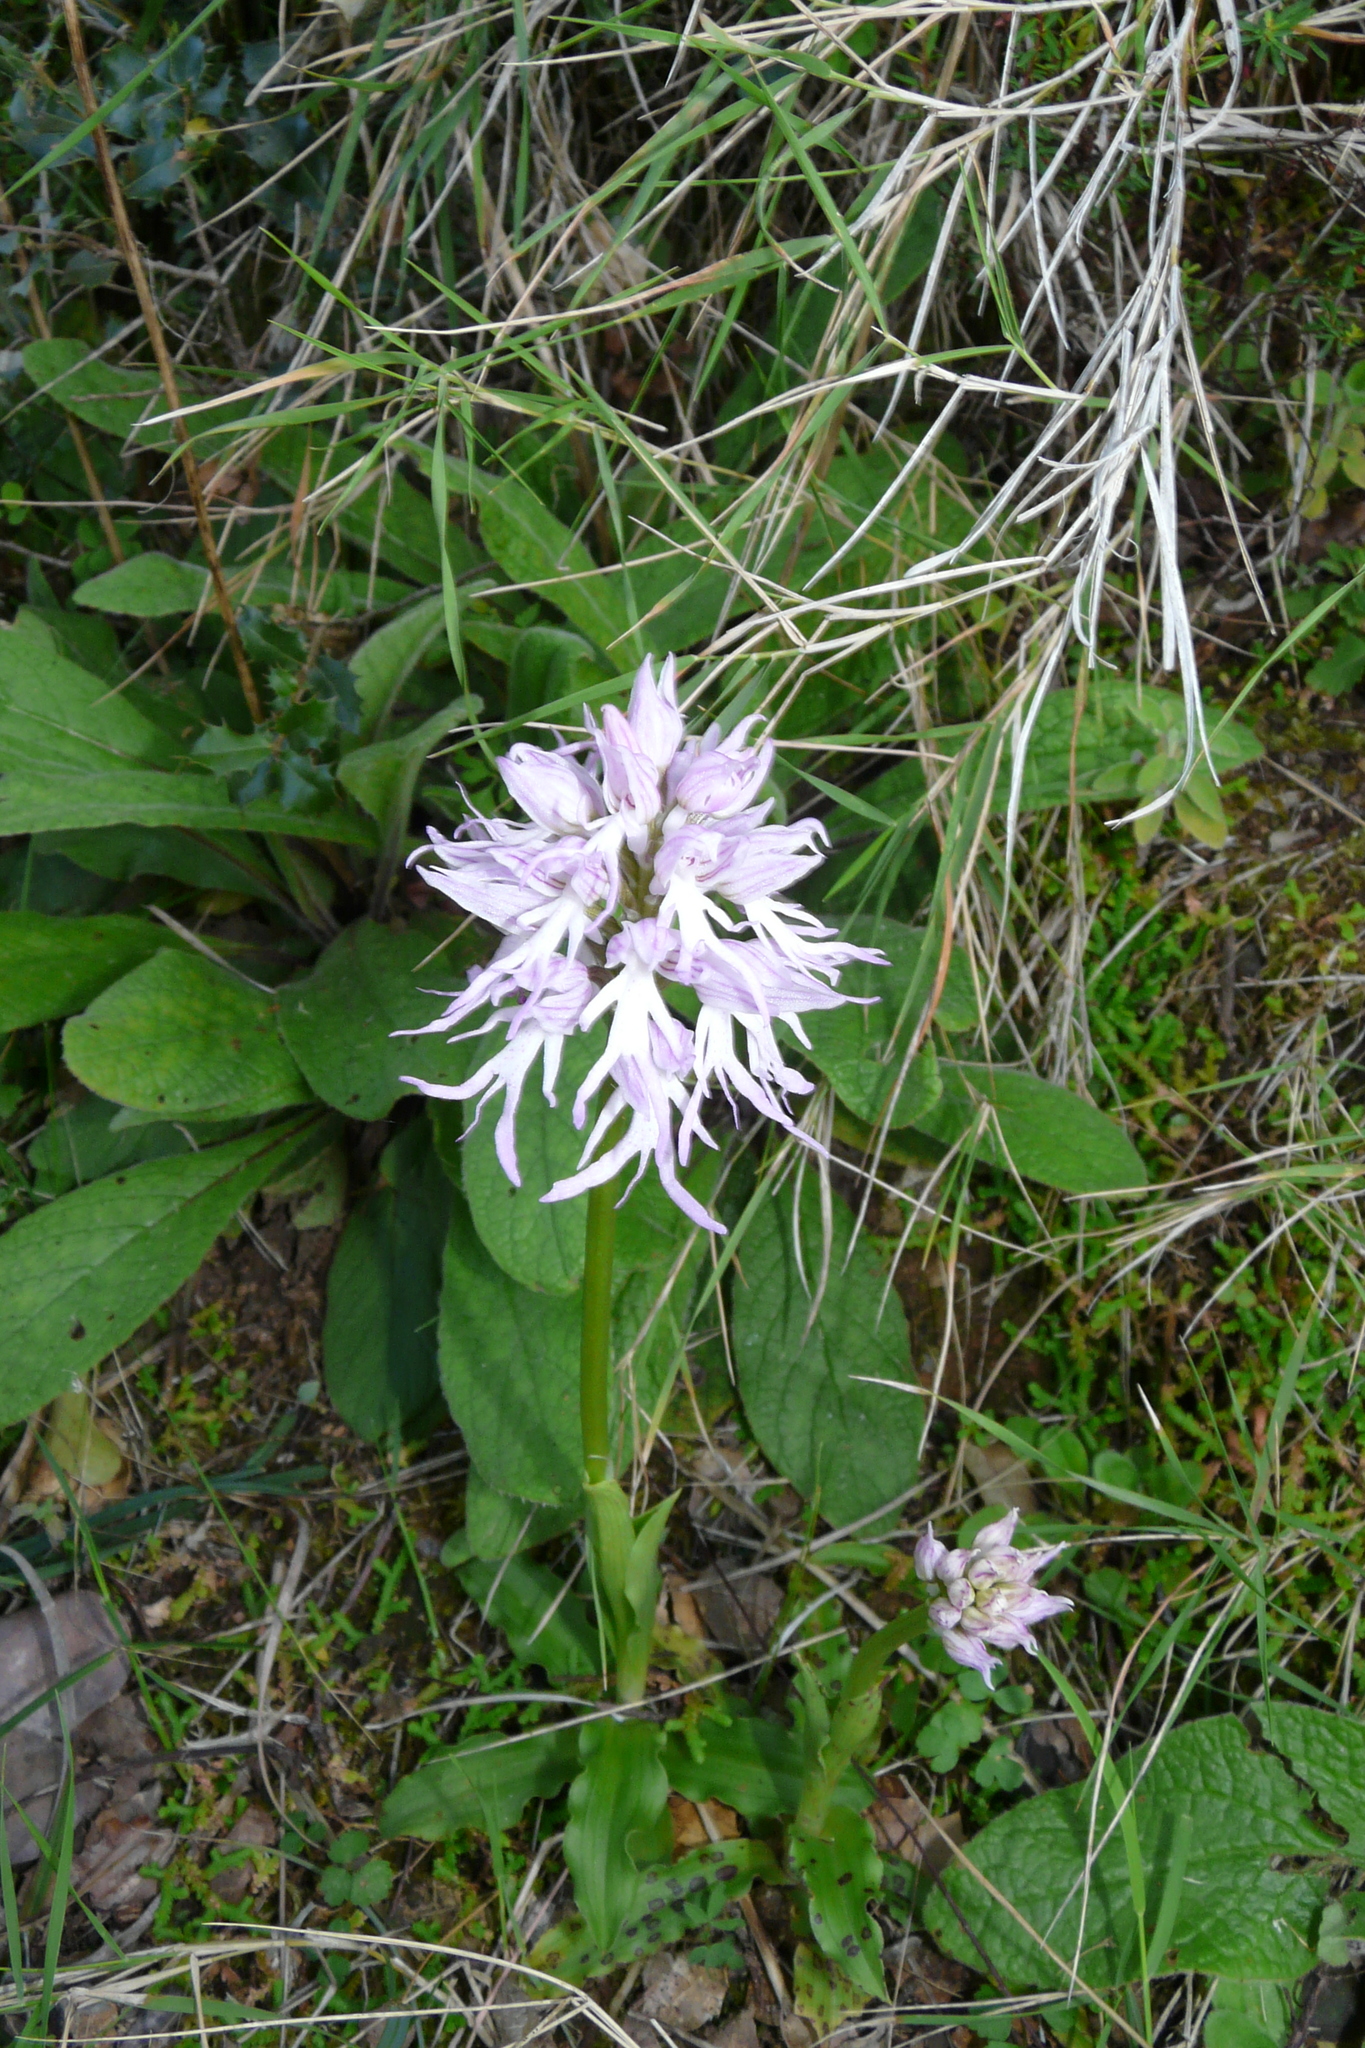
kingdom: Plantae
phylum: Tracheophyta
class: Liliopsida
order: Asparagales
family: Orchidaceae
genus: Orchis
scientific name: Orchis italica
